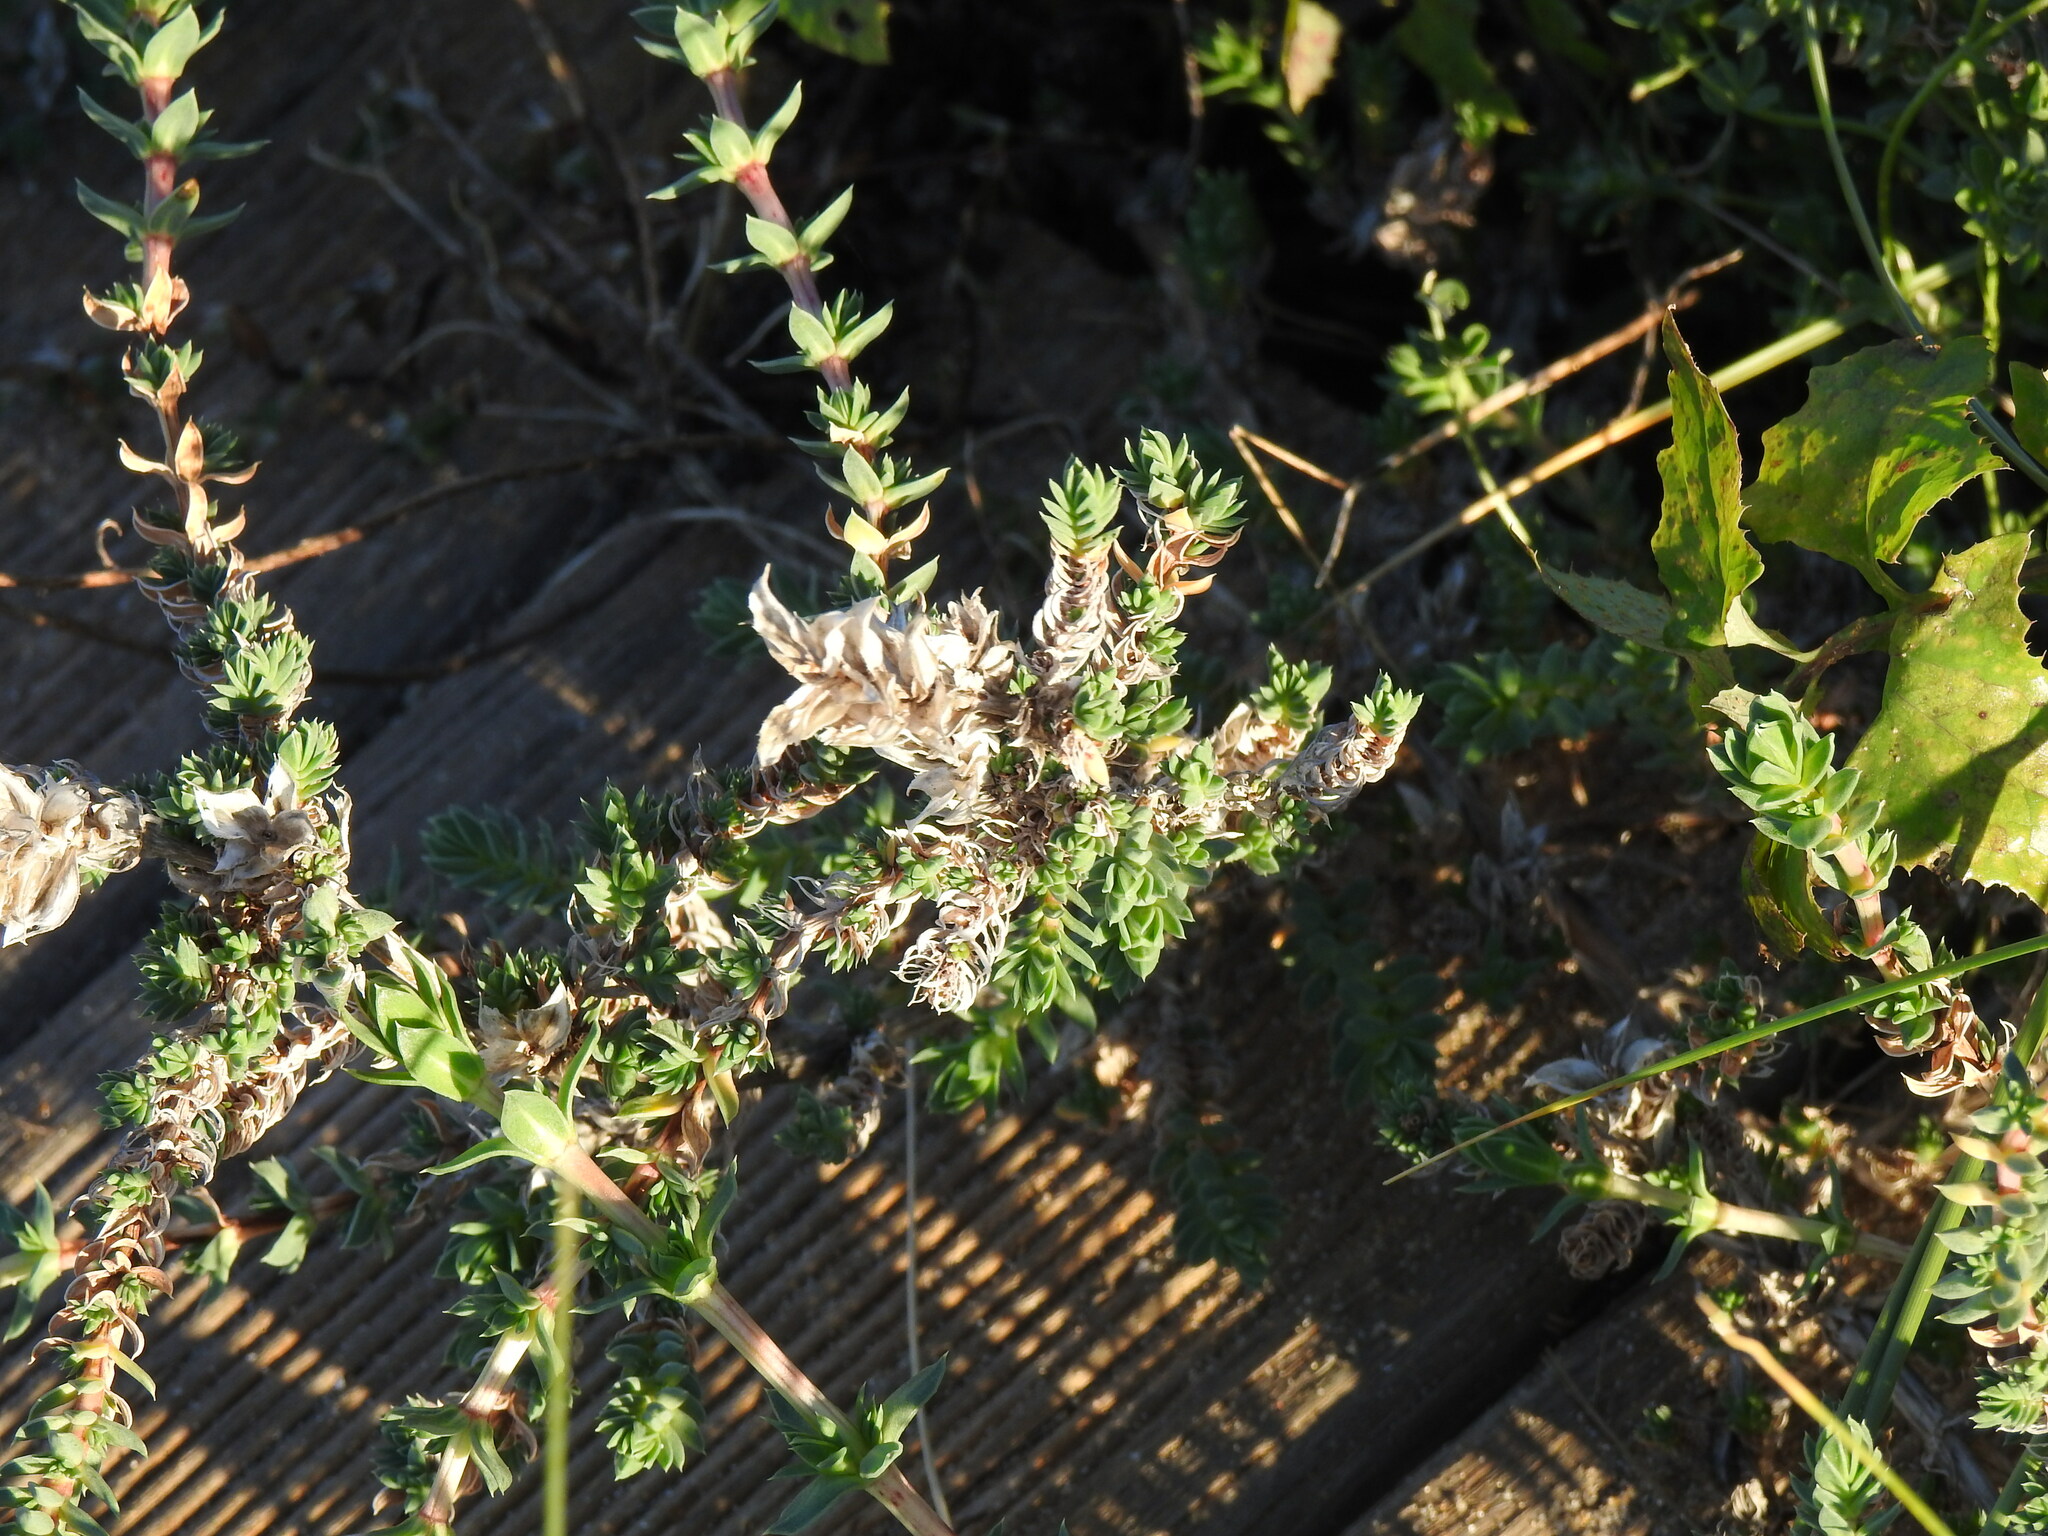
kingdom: Plantae
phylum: Tracheophyta
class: Magnoliopsida
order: Gentianales
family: Rubiaceae
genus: Crucianella
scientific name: Crucianella maritima
